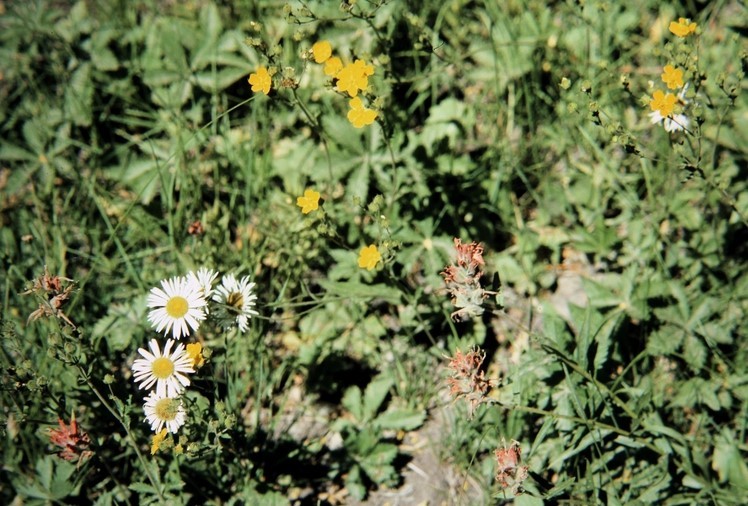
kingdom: Plantae
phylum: Tracheophyta
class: Magnoliopsida
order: Asterales
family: Asteraceae
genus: Erigeron
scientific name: Erigeron coulteri
